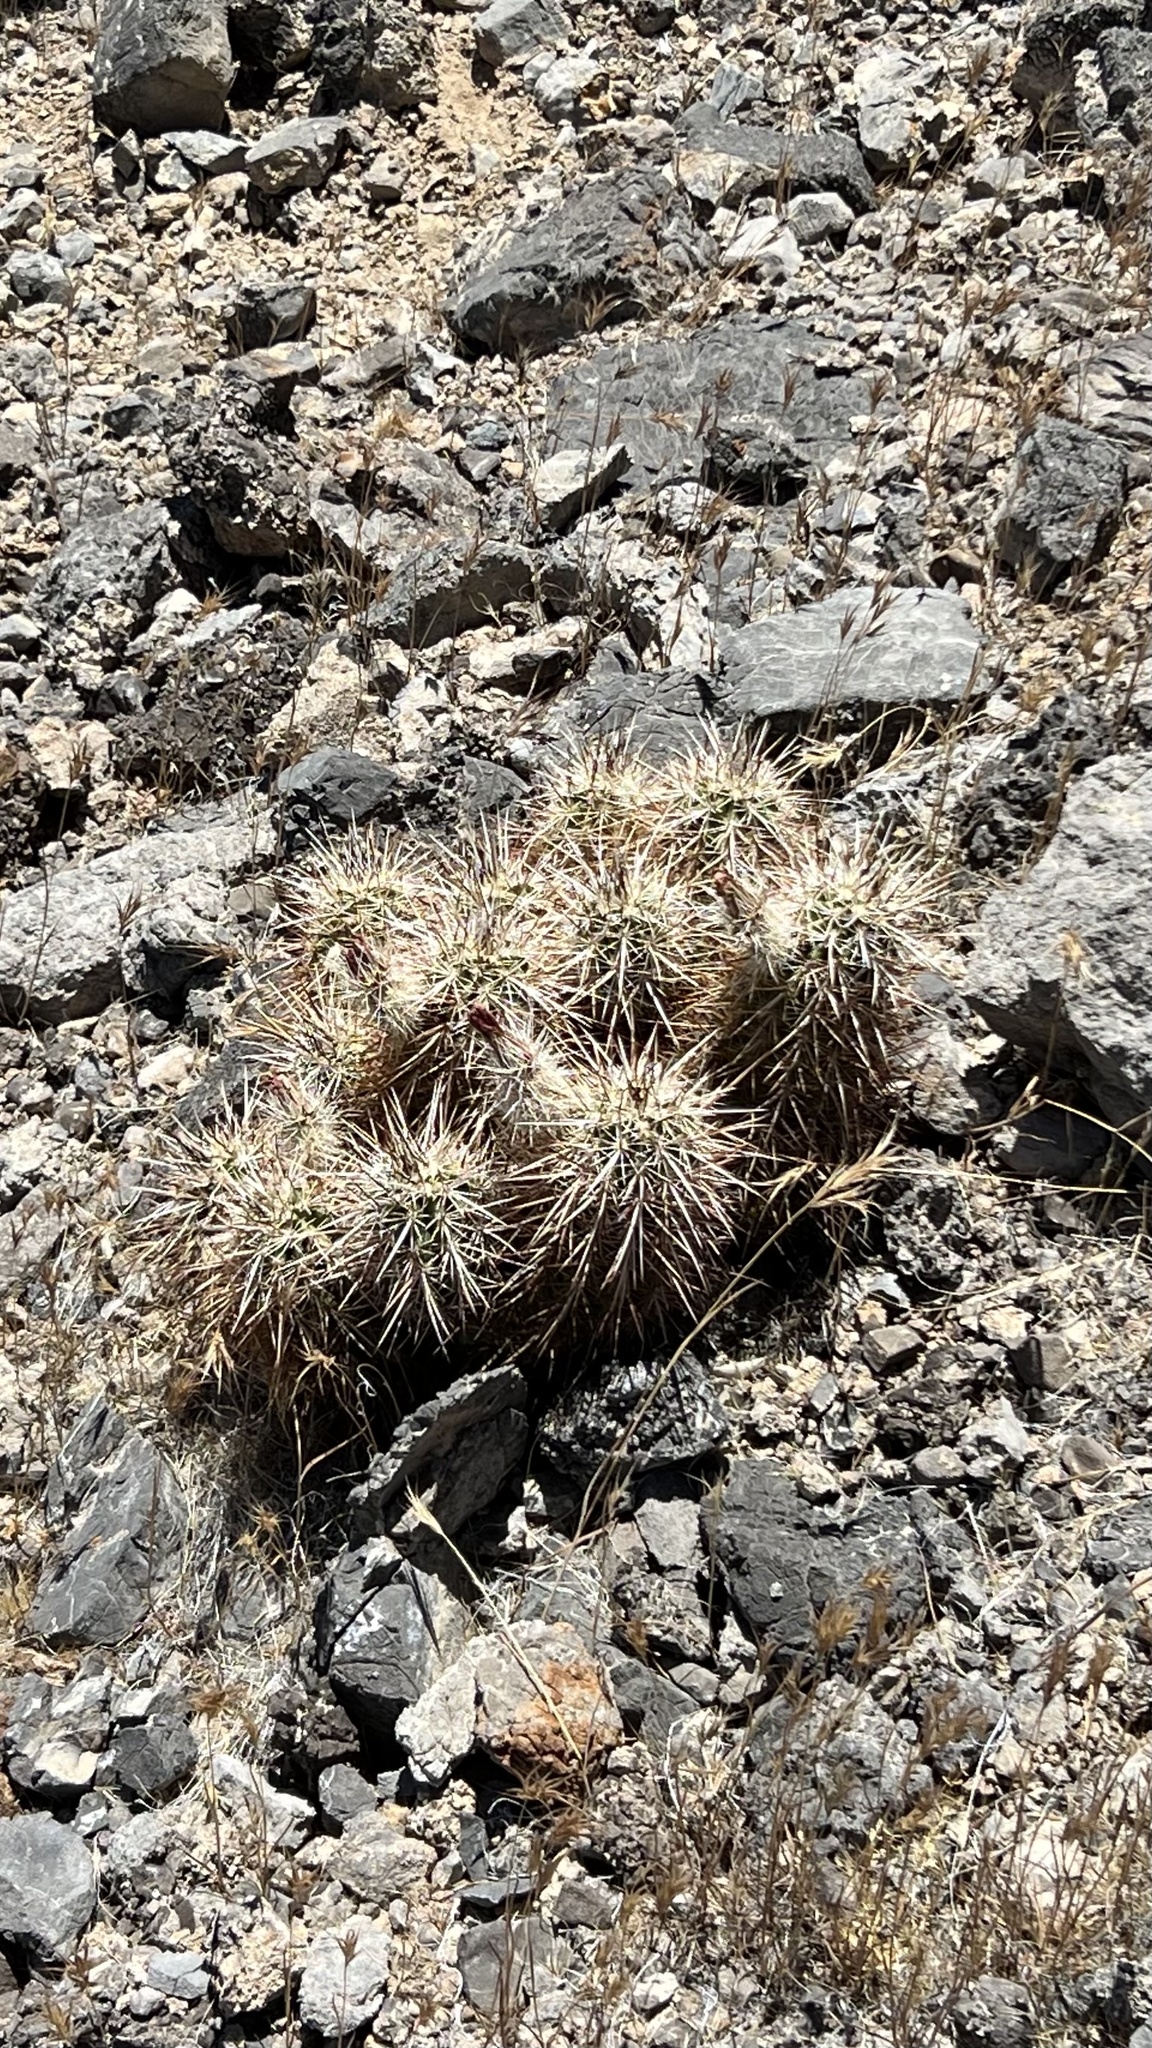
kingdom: Plantae
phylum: Tracheophyta
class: Magnoliopsida
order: Caryophyllales
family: Cactaceae
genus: Echinocereus
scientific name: Echinocereus engelmannii
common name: Engelmann's hedgehog cactus
